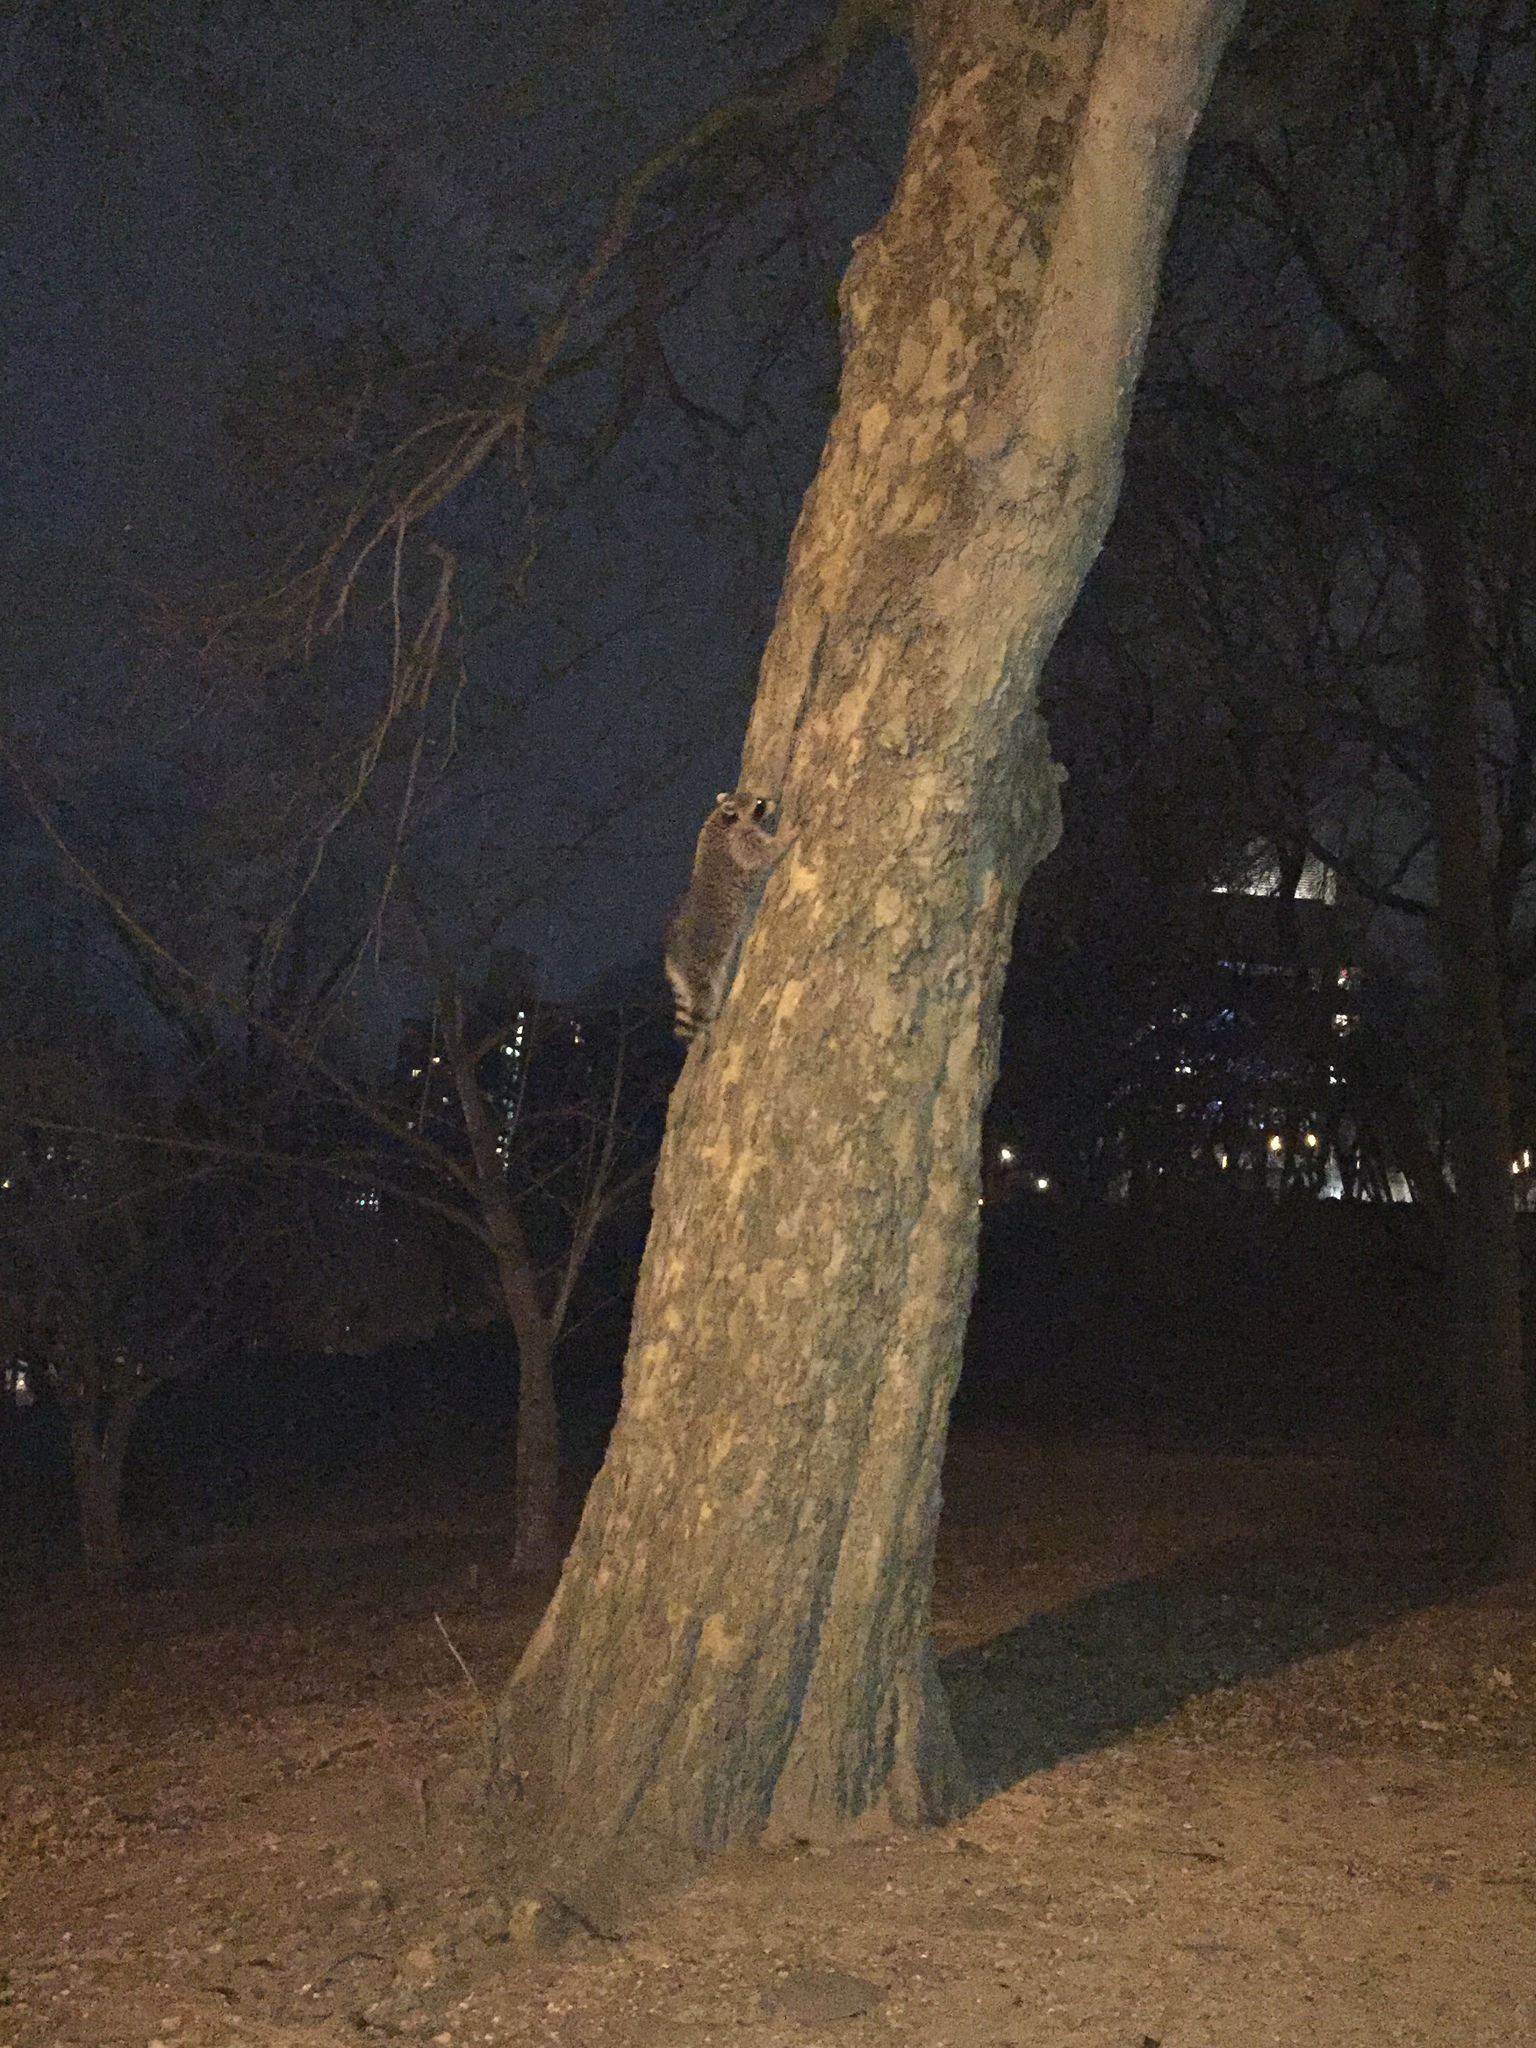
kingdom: Animalia
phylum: Chordata
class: Mammalia
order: Carnivora
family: Procyonidae
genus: Procyon
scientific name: Procyon lotor
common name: Raccoon
